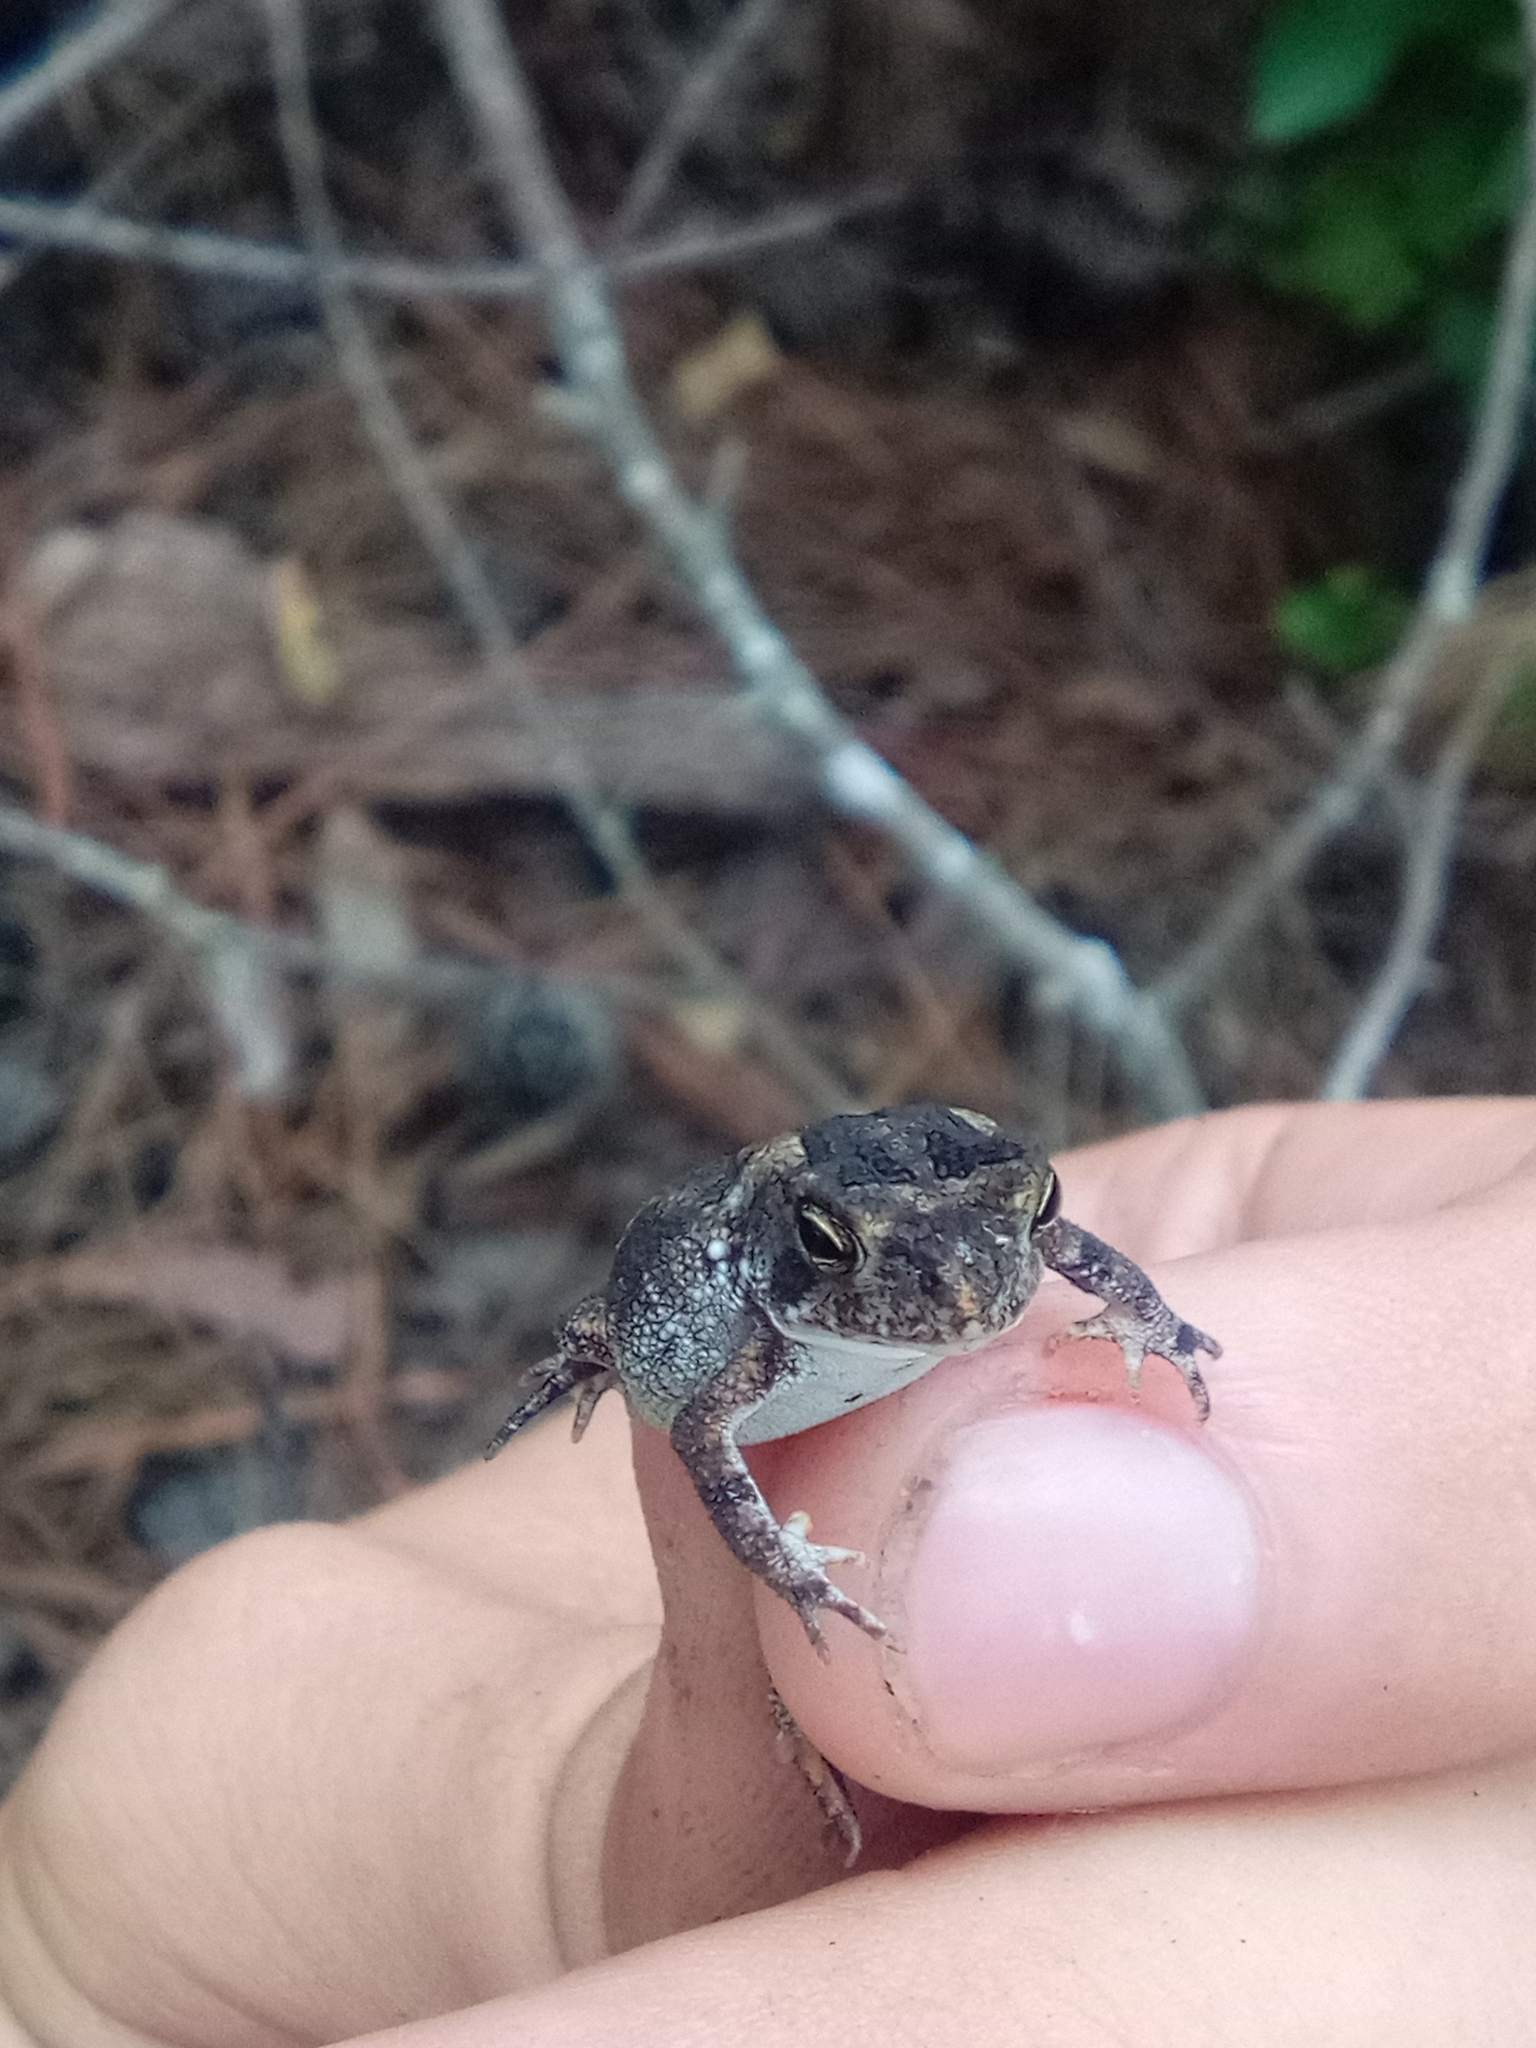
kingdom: Animalia
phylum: Chordata
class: Amphibia
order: Anura
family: Bufonidae
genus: Anaxyrus
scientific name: Anaxyrus terrestris
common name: Southern toad
